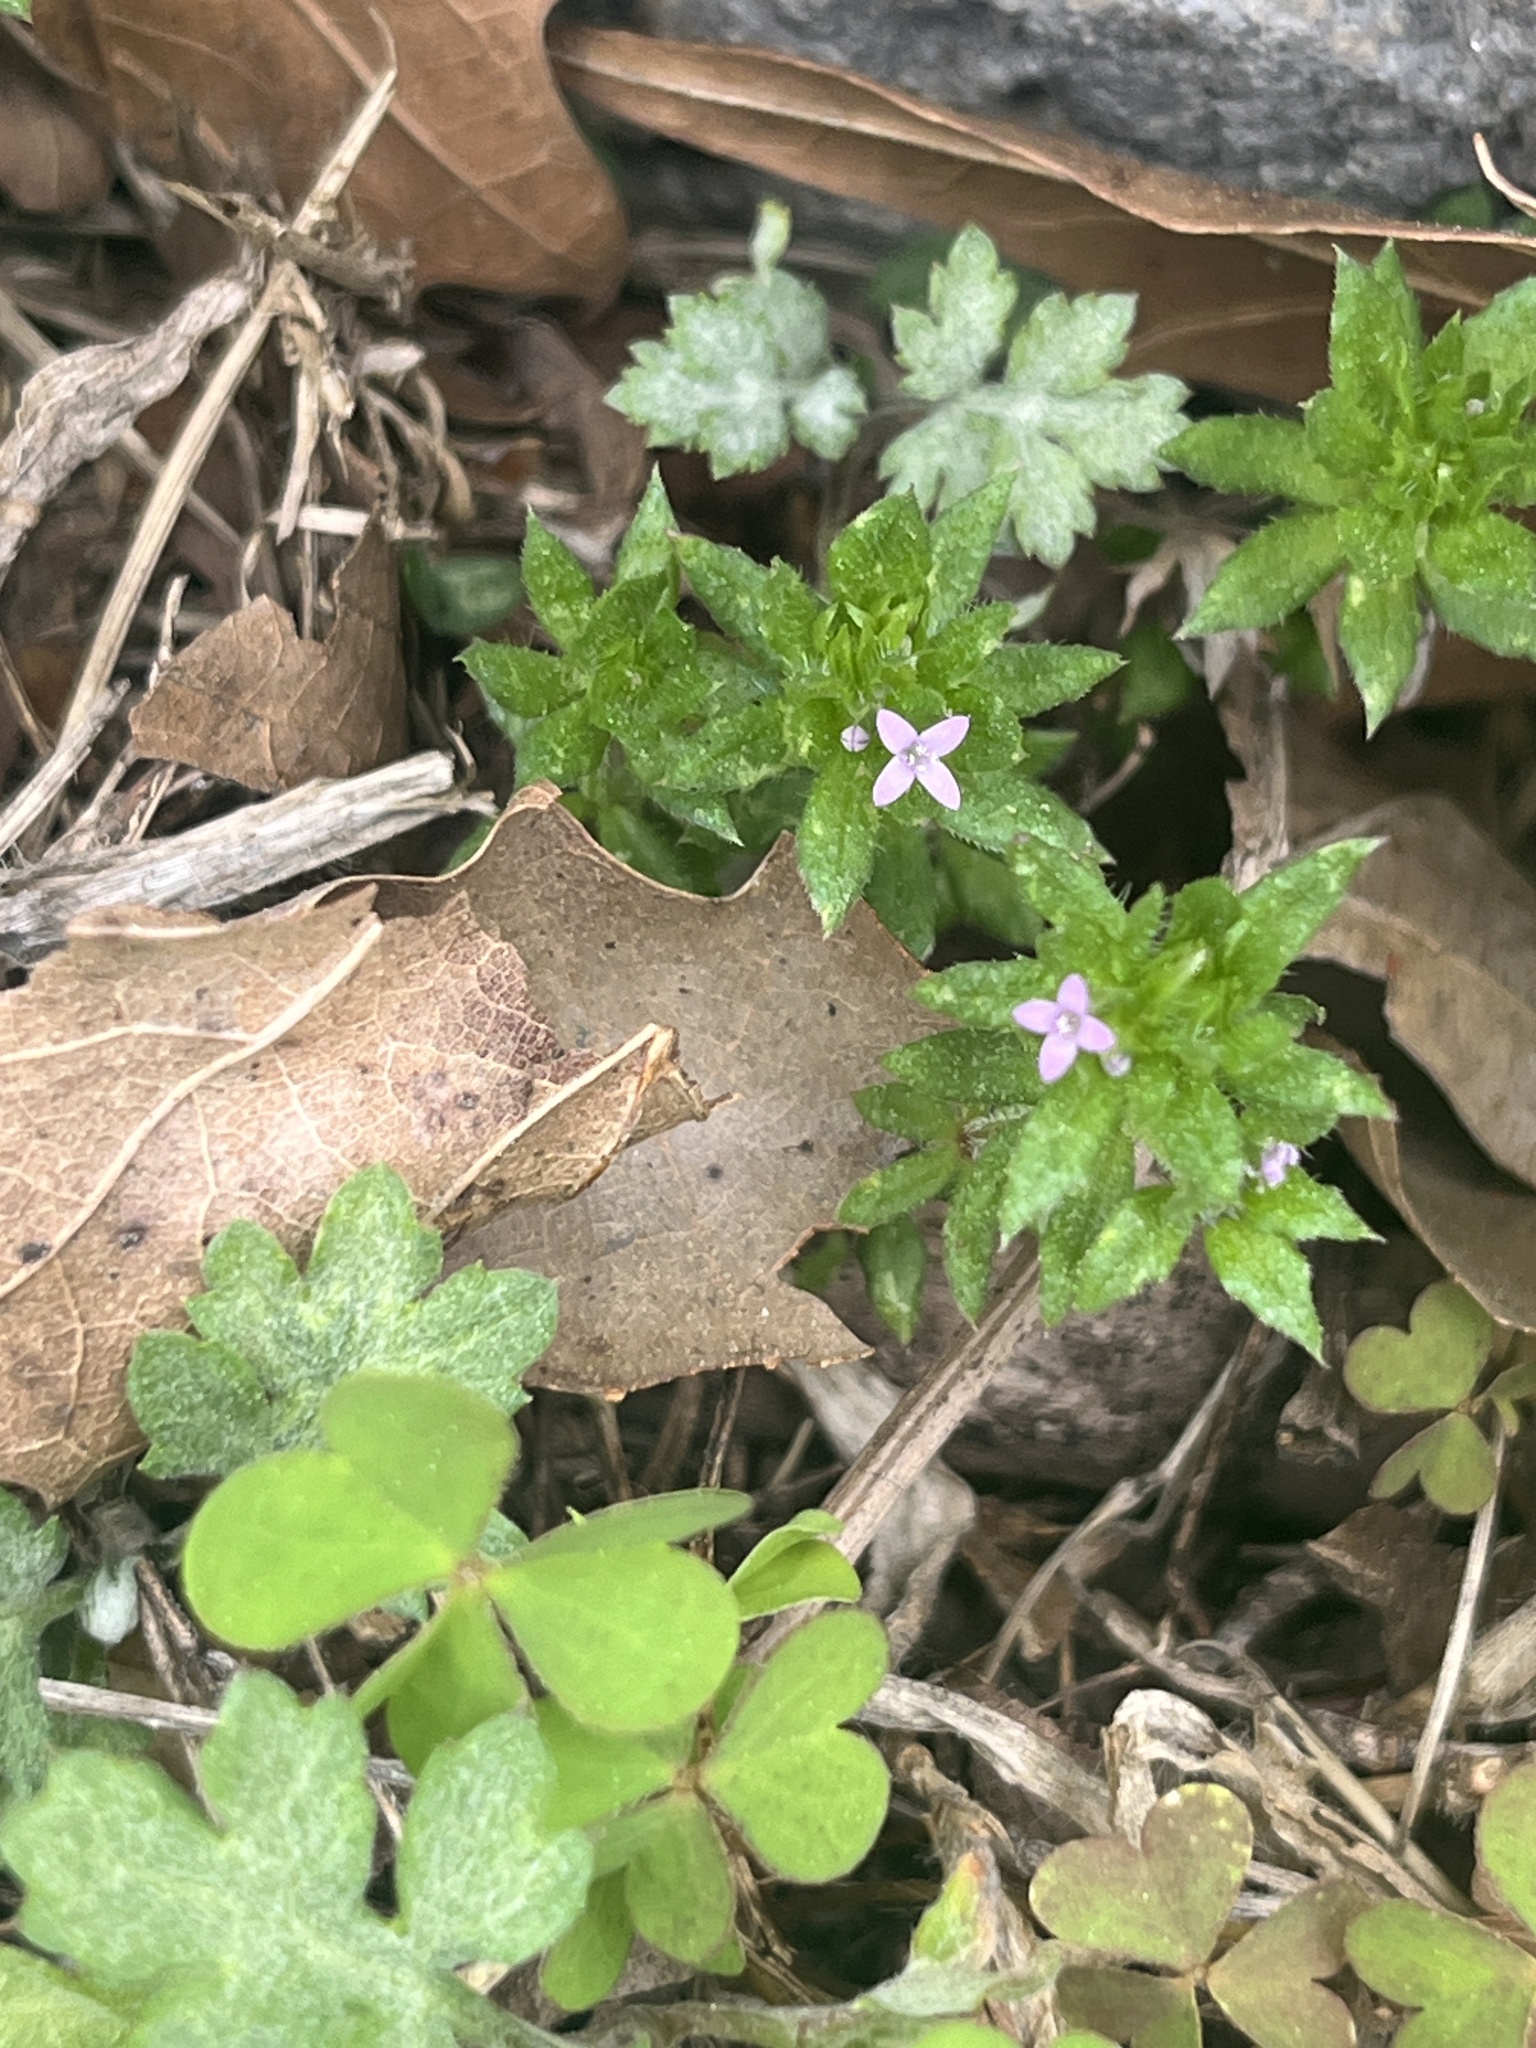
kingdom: Plantae
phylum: Tracheophyta
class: Magnoliopsida
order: Gentianales
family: Rubiaceae
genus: Sherardia
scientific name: Sherardia arvensis
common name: Field madder
